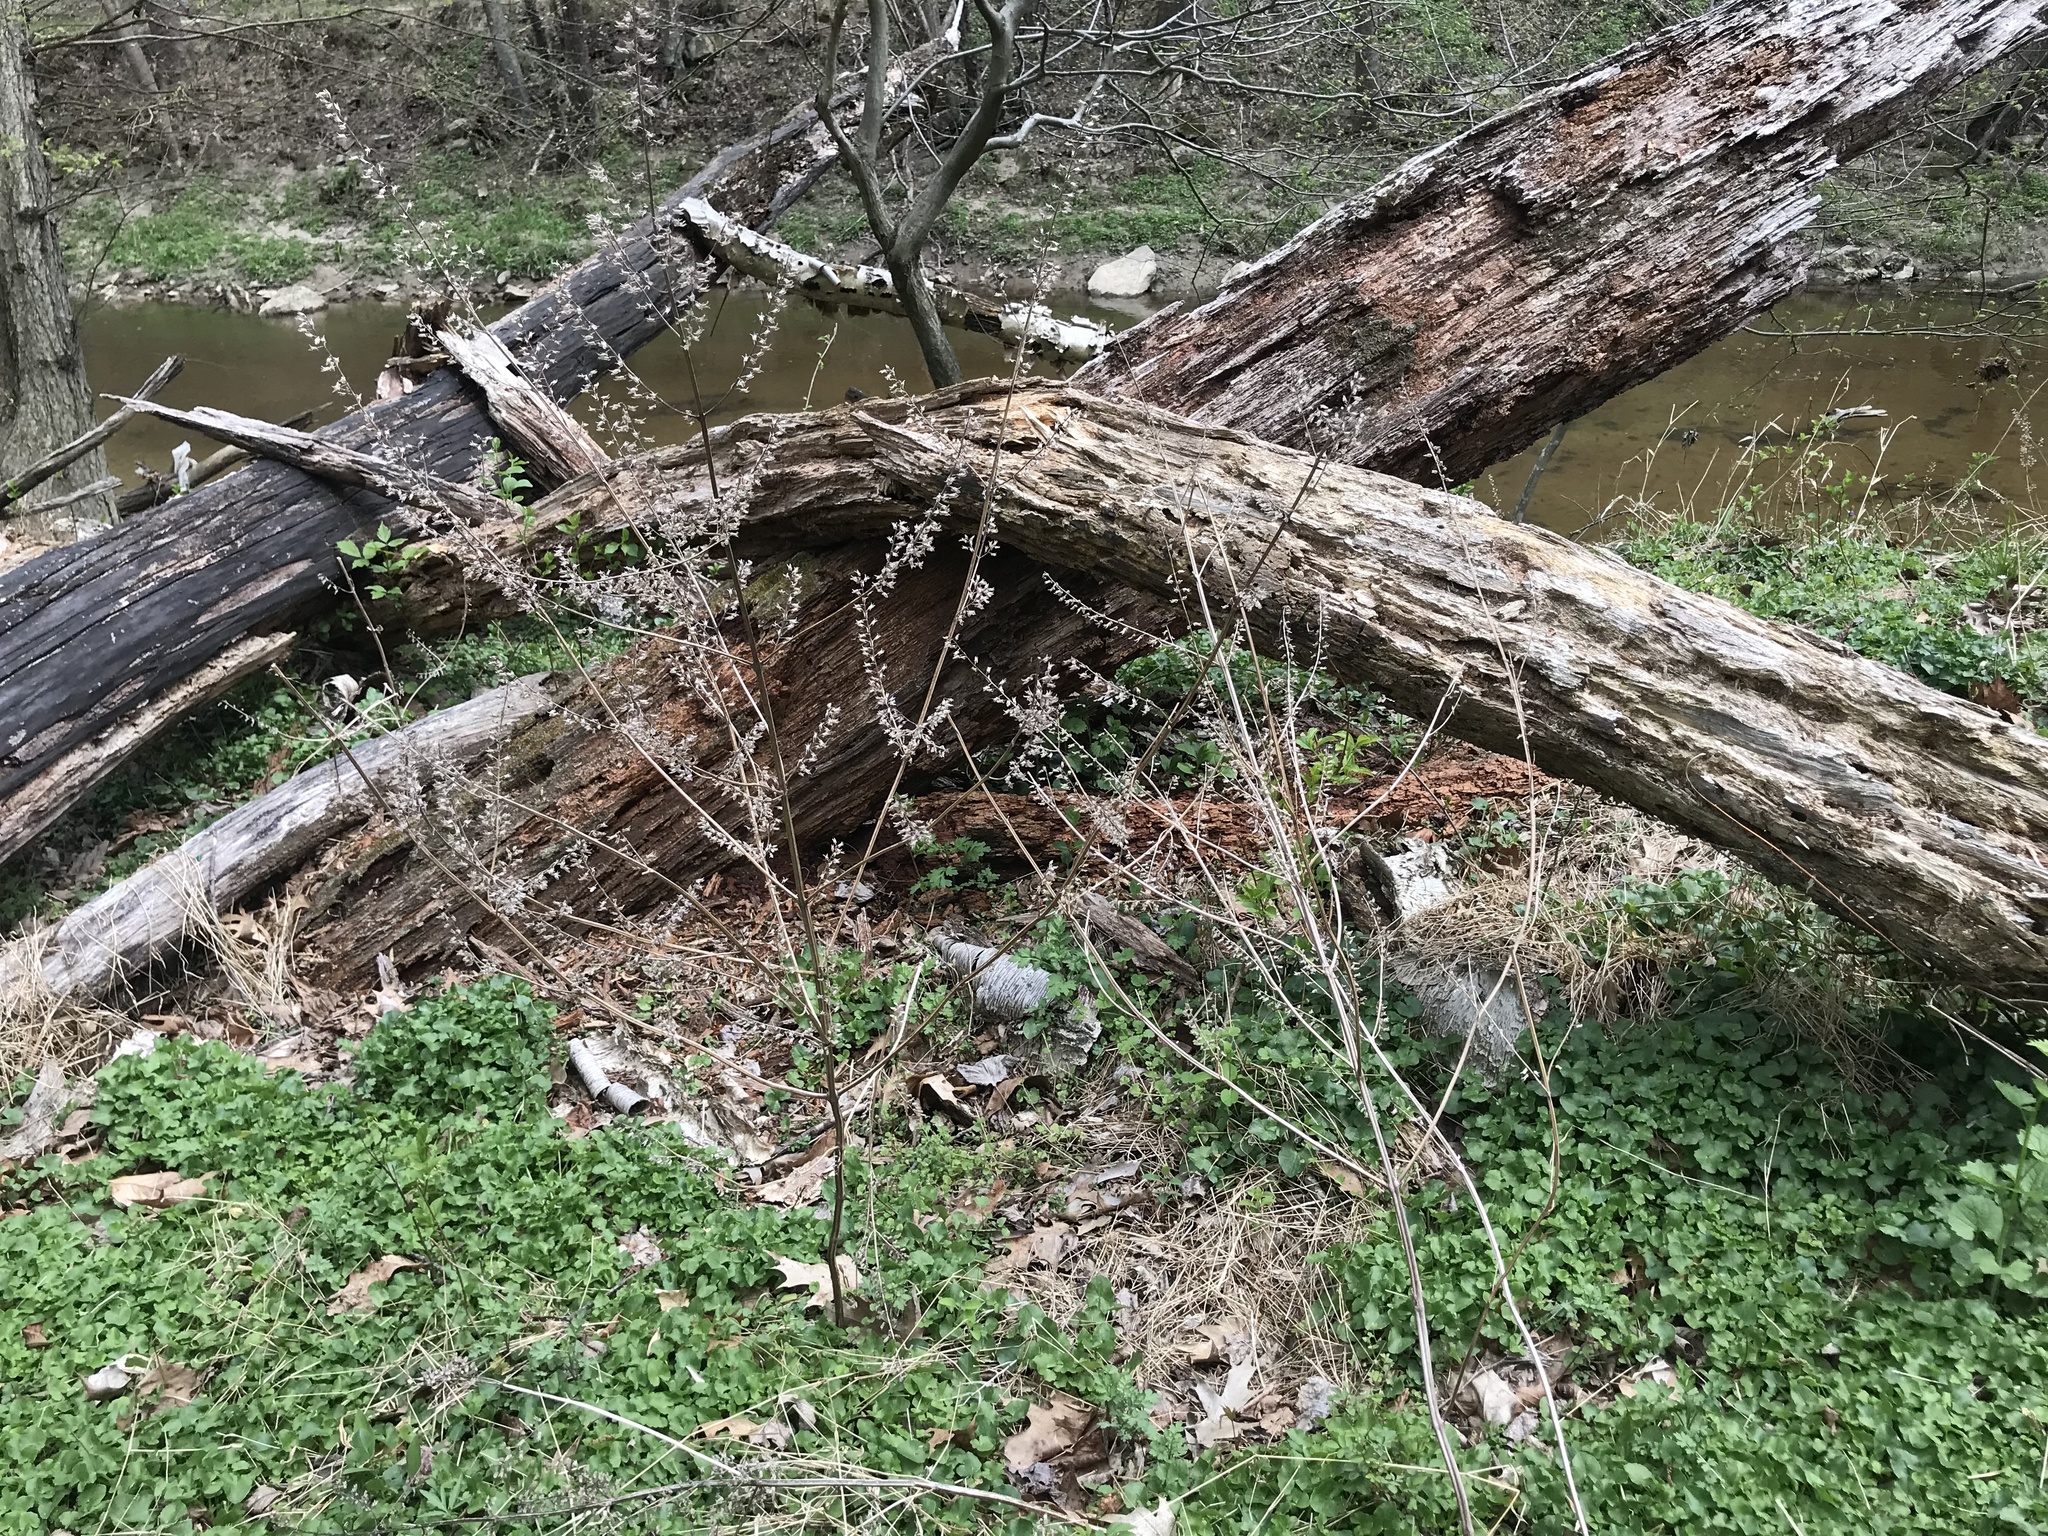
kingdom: Plantae
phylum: Tracheophyta
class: Magnoliopsida
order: Lamiales
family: Lamiaceae
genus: Perilla
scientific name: Perilla frutescens
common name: Perilla
